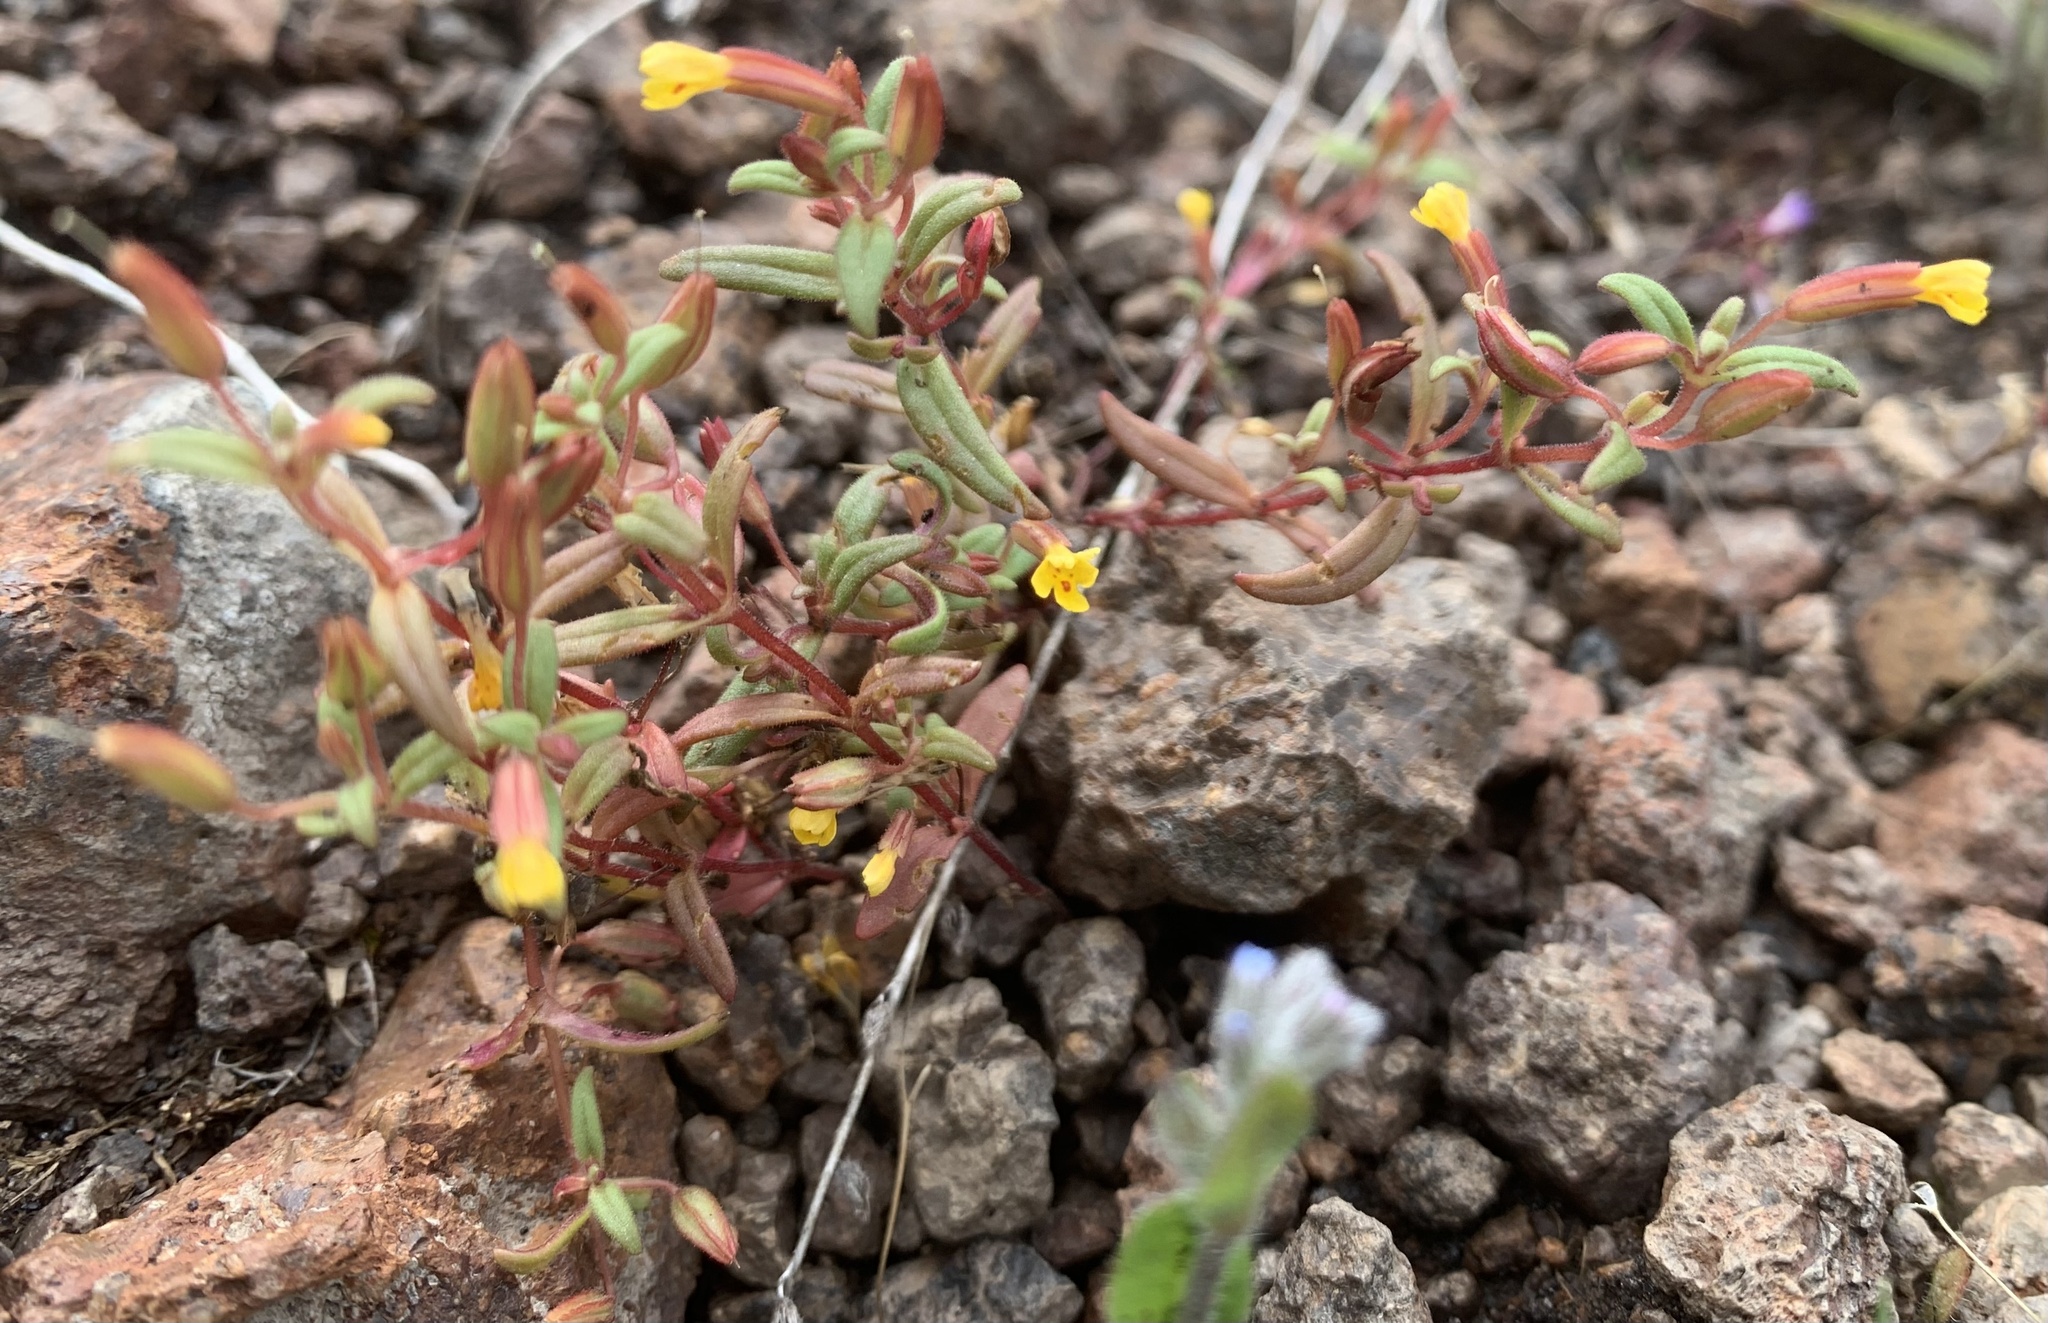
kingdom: Plantae
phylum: Tracheophyta
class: Magnoliopsida
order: Lamiales
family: Phrymaceae
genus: Erythranthe
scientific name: Erythranthe suksdorfii
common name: Suksdorf's monkeyflower
